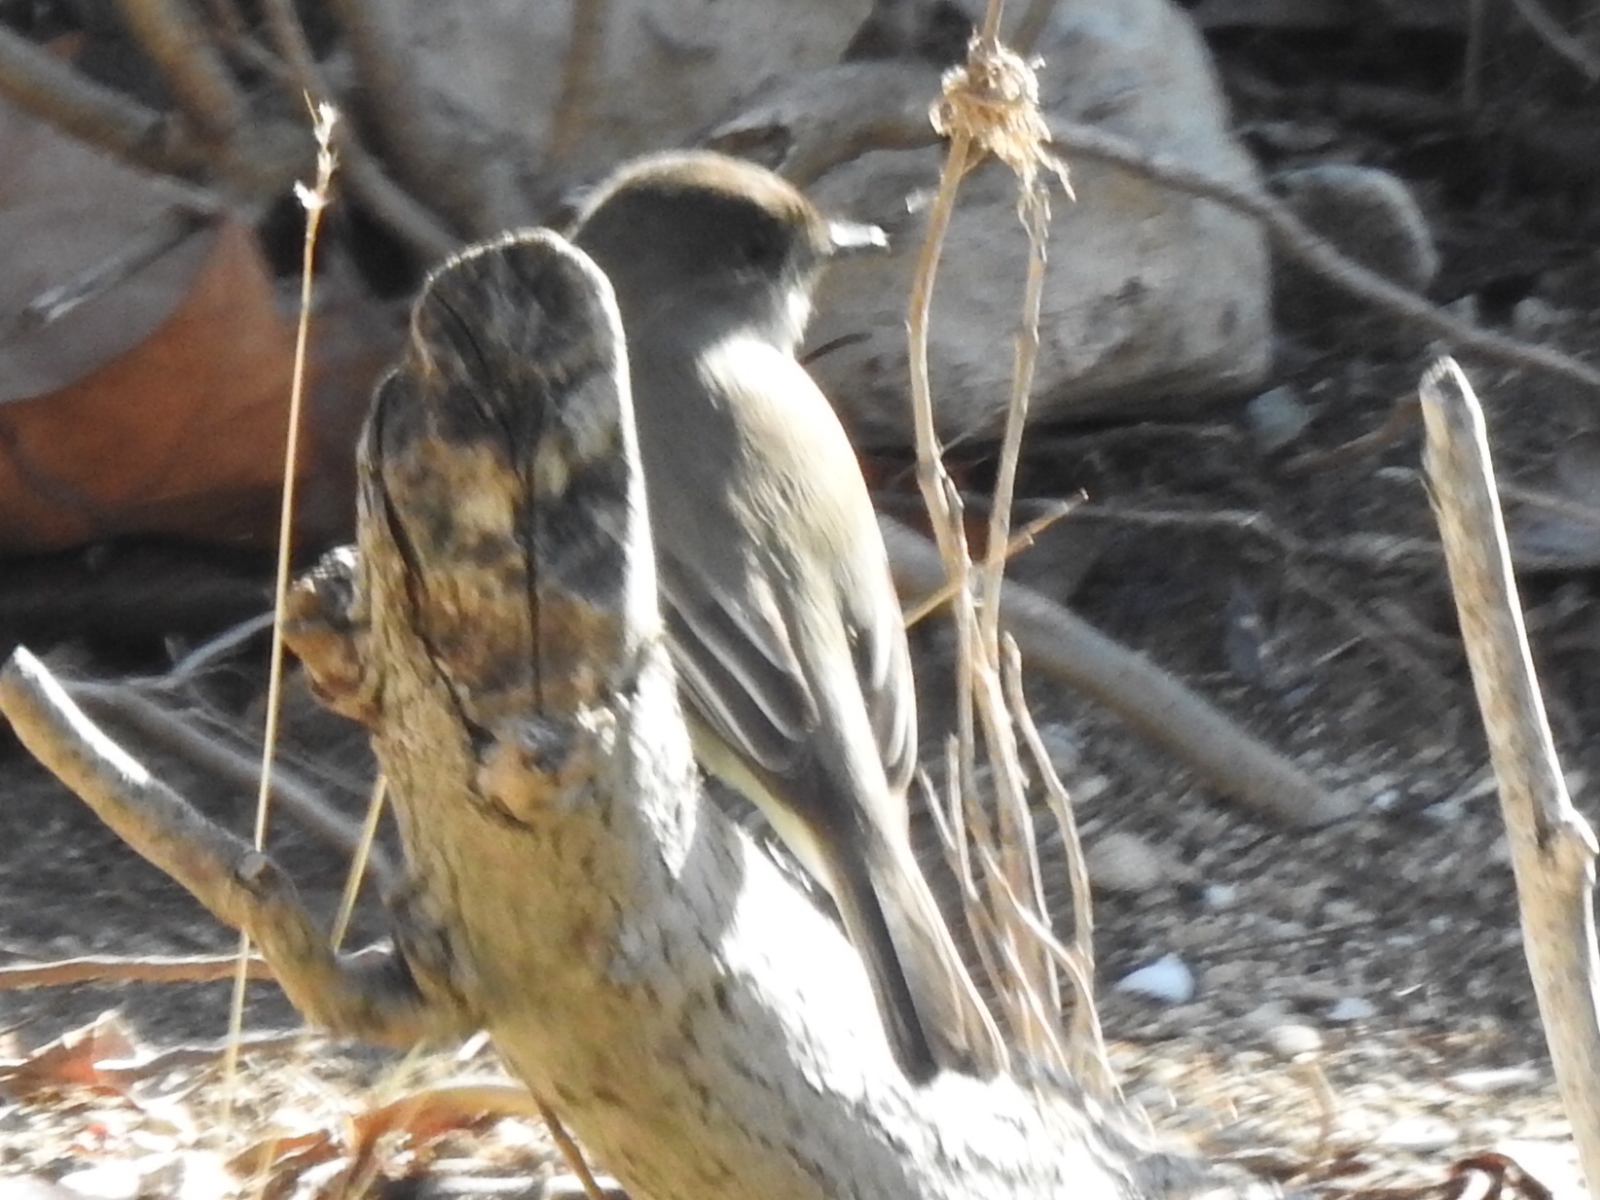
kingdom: Animalia
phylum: Chordata
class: Aves
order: Passeriformes
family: Tyrannidae
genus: Sayornis
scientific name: Sayornis phoebe
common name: Eastern phoebe
